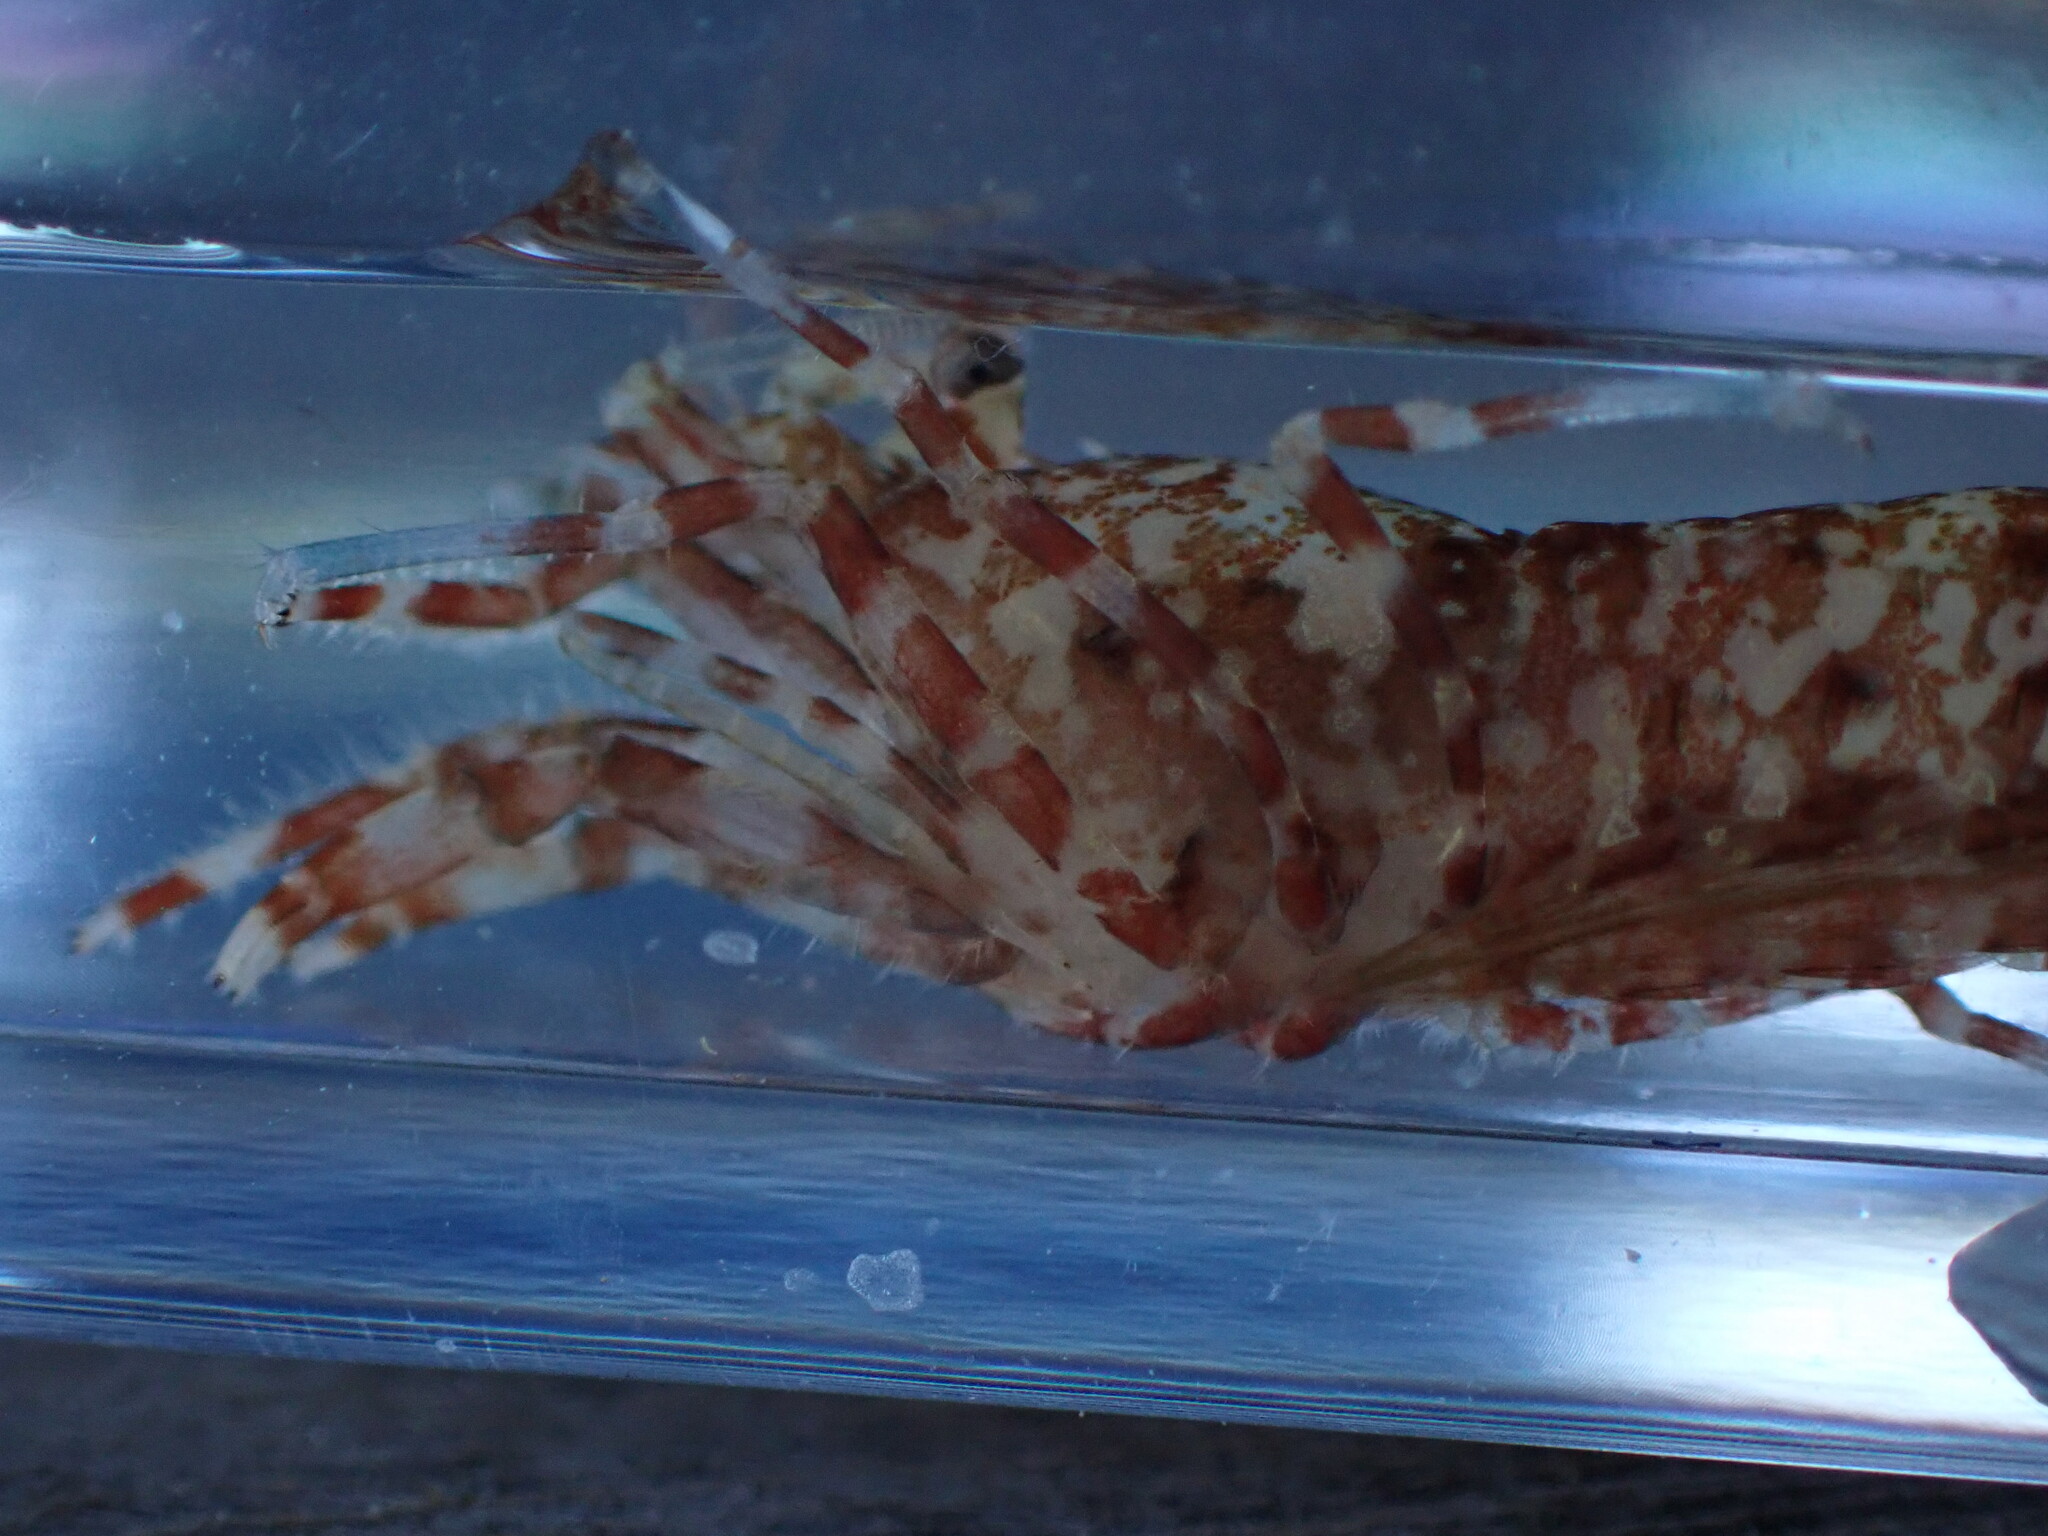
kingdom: Animalia
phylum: Arthropoda
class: Malacostraca
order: Decapoda
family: Thoridae
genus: Heptacarpus
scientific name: Heptacarpus brevirostris
